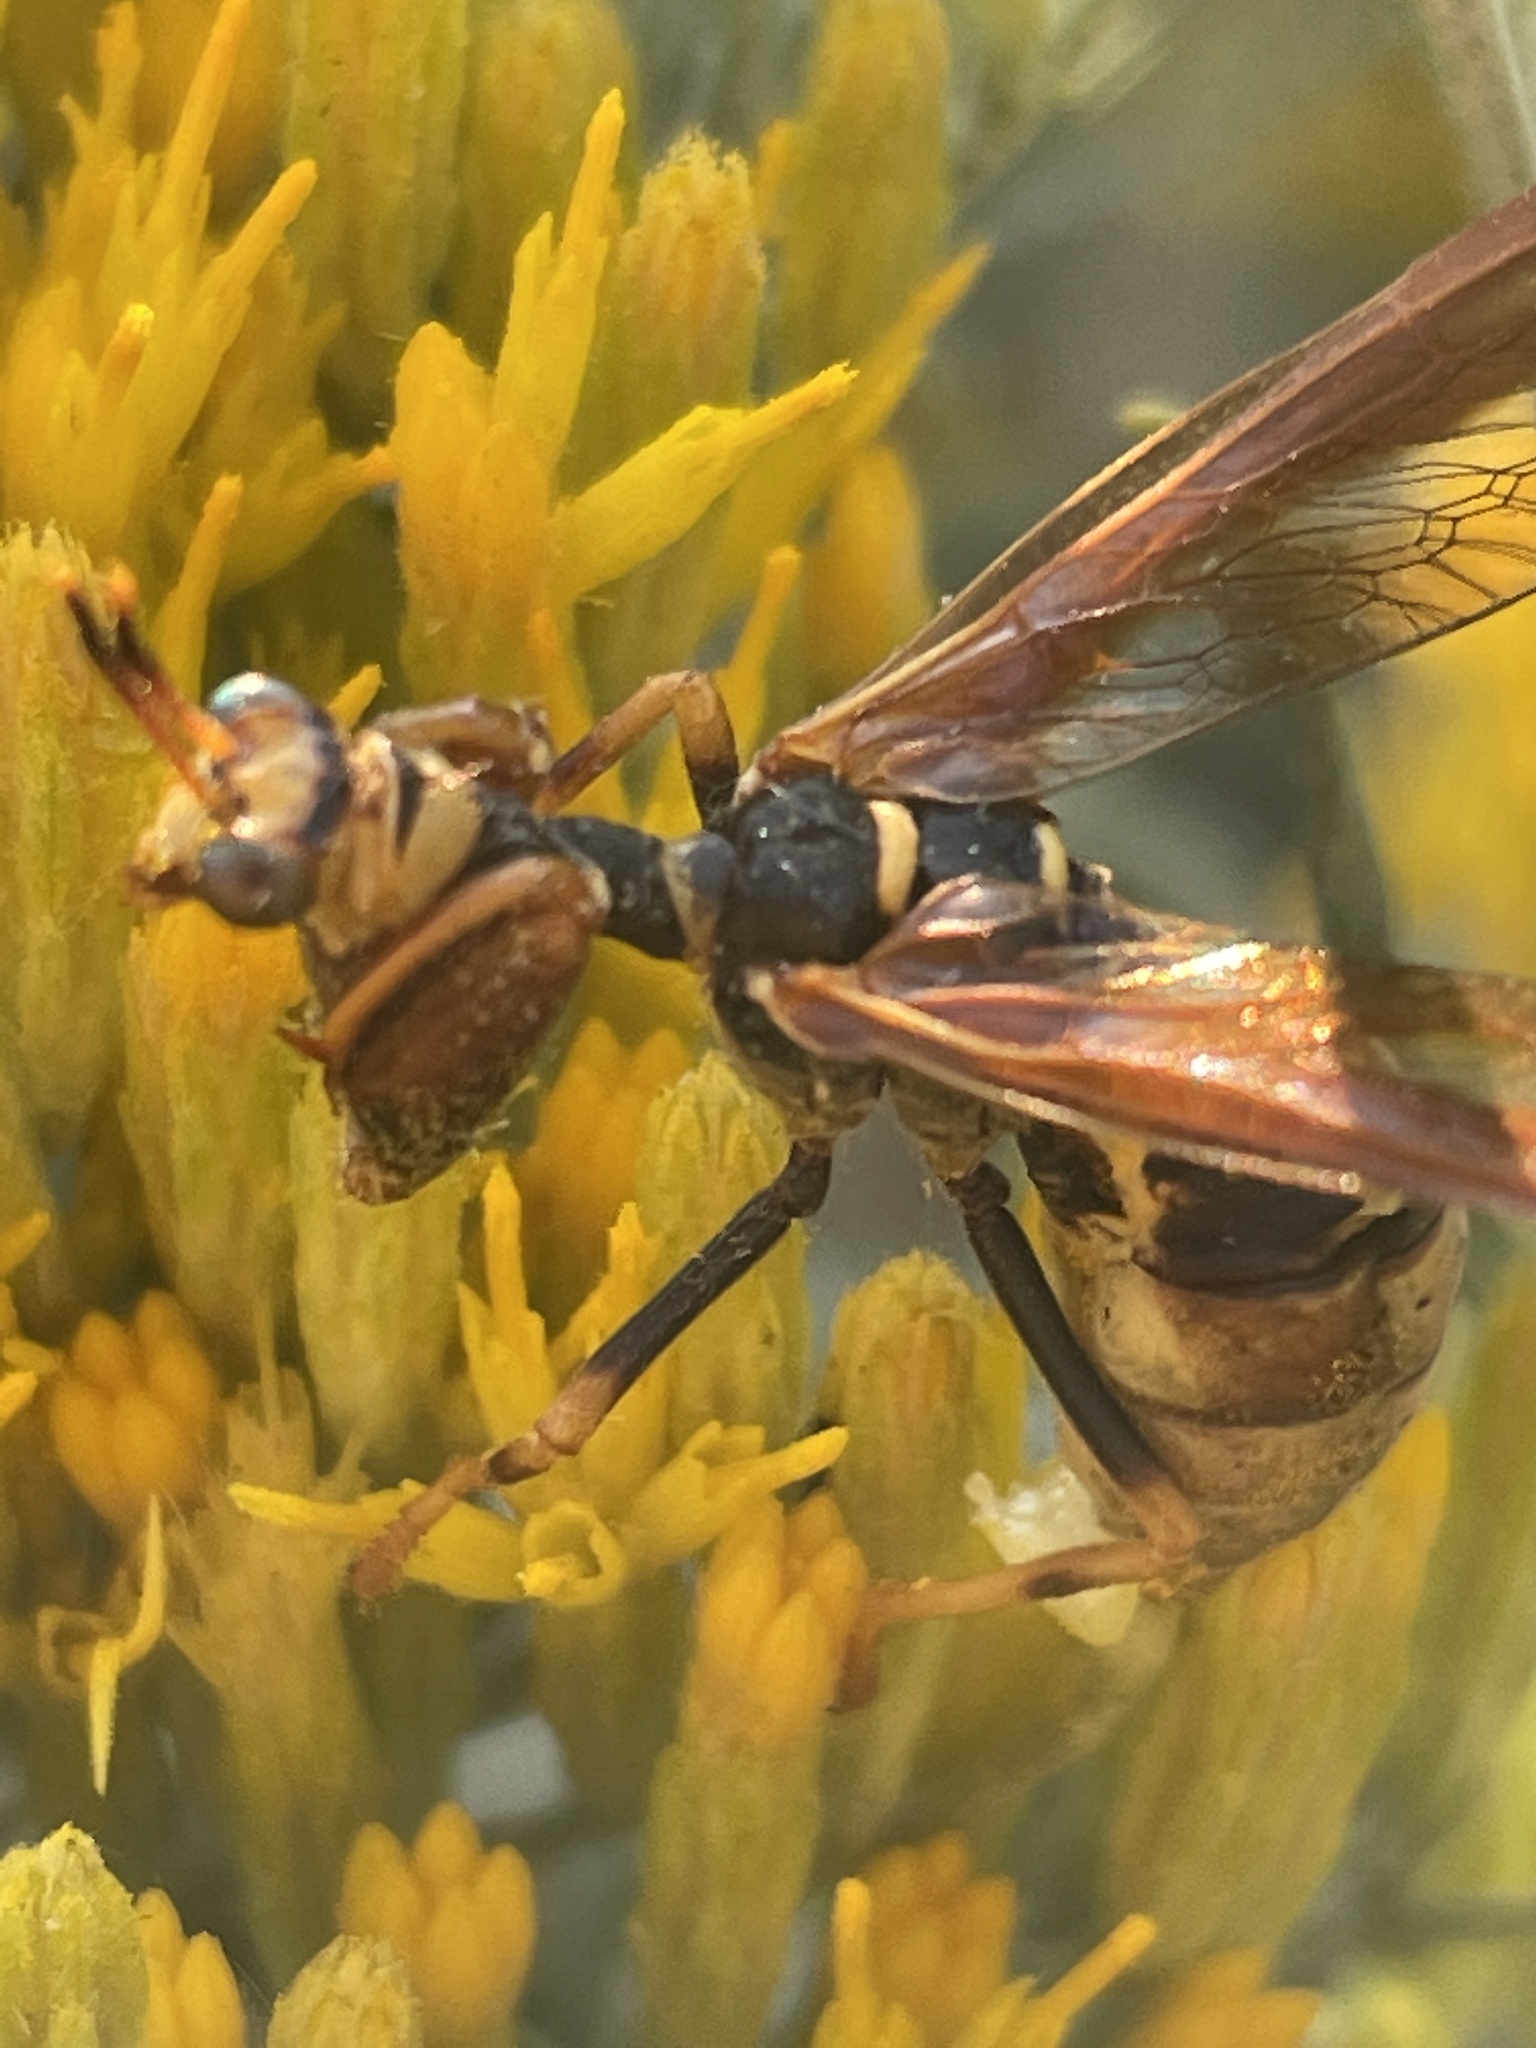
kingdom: Animalia
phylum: Arthropoda
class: Insecta
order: Neuroptera
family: Mantispidae
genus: Climaciella
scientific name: Climaciella brunnea
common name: Brown wasp mantidfly
